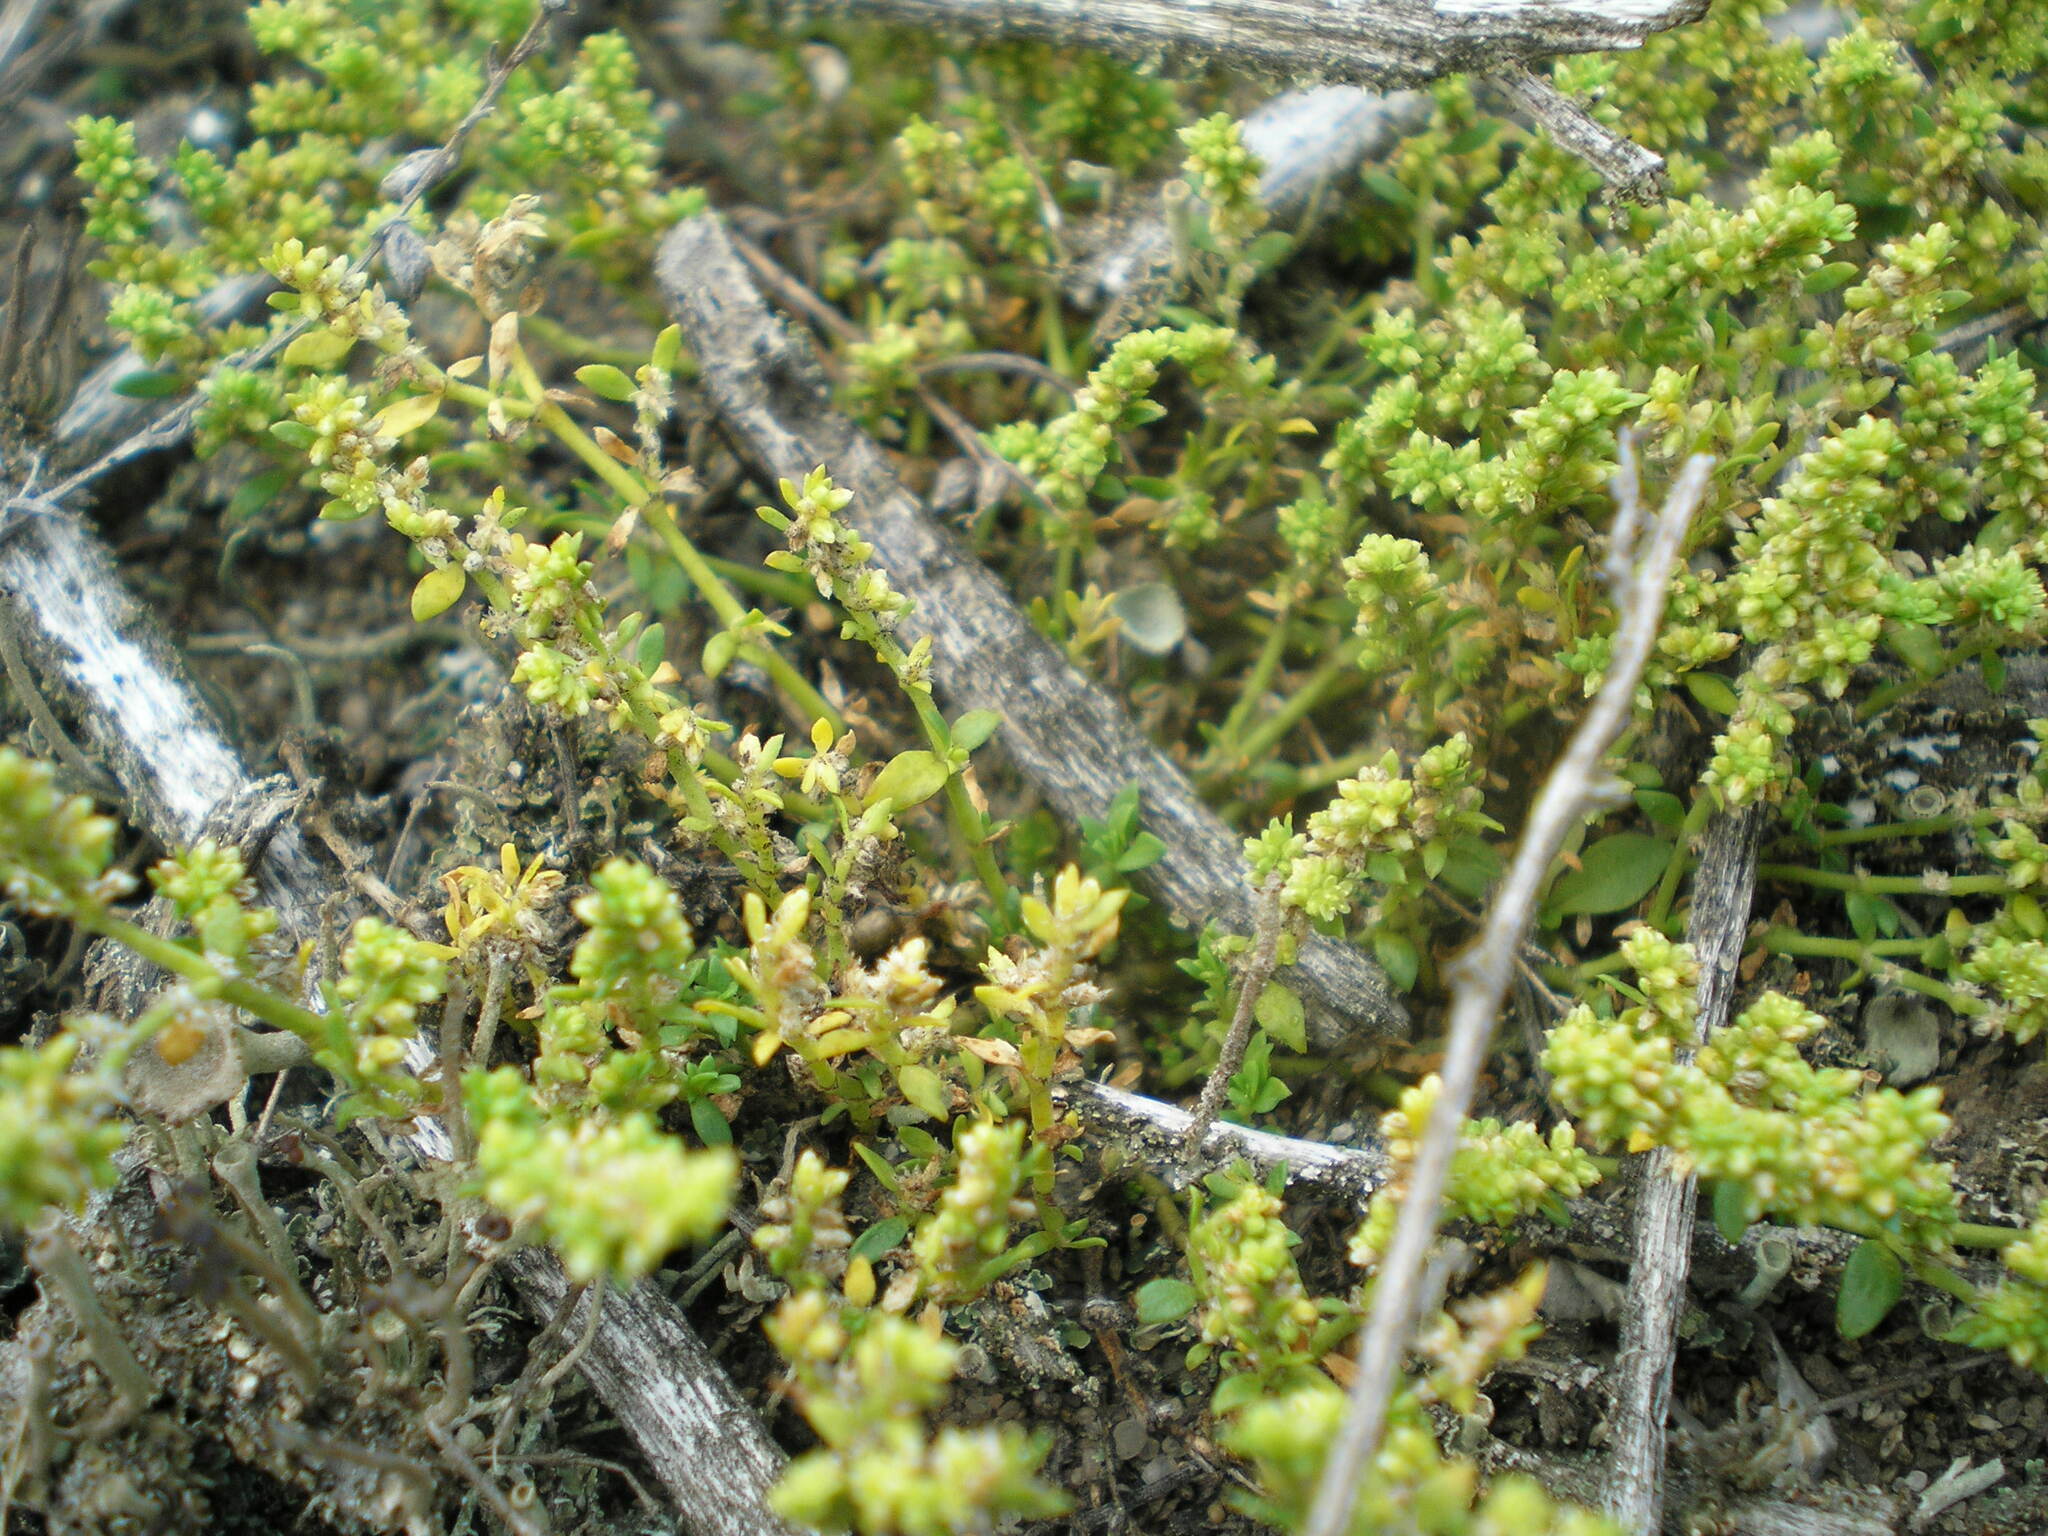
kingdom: Plantae
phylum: Tracheophyta
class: Magnoliopsida
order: Caryophyllales
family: Caryophyllaceae
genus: Herniaria
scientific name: Herniaria glabra
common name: Smooth rupturewort
